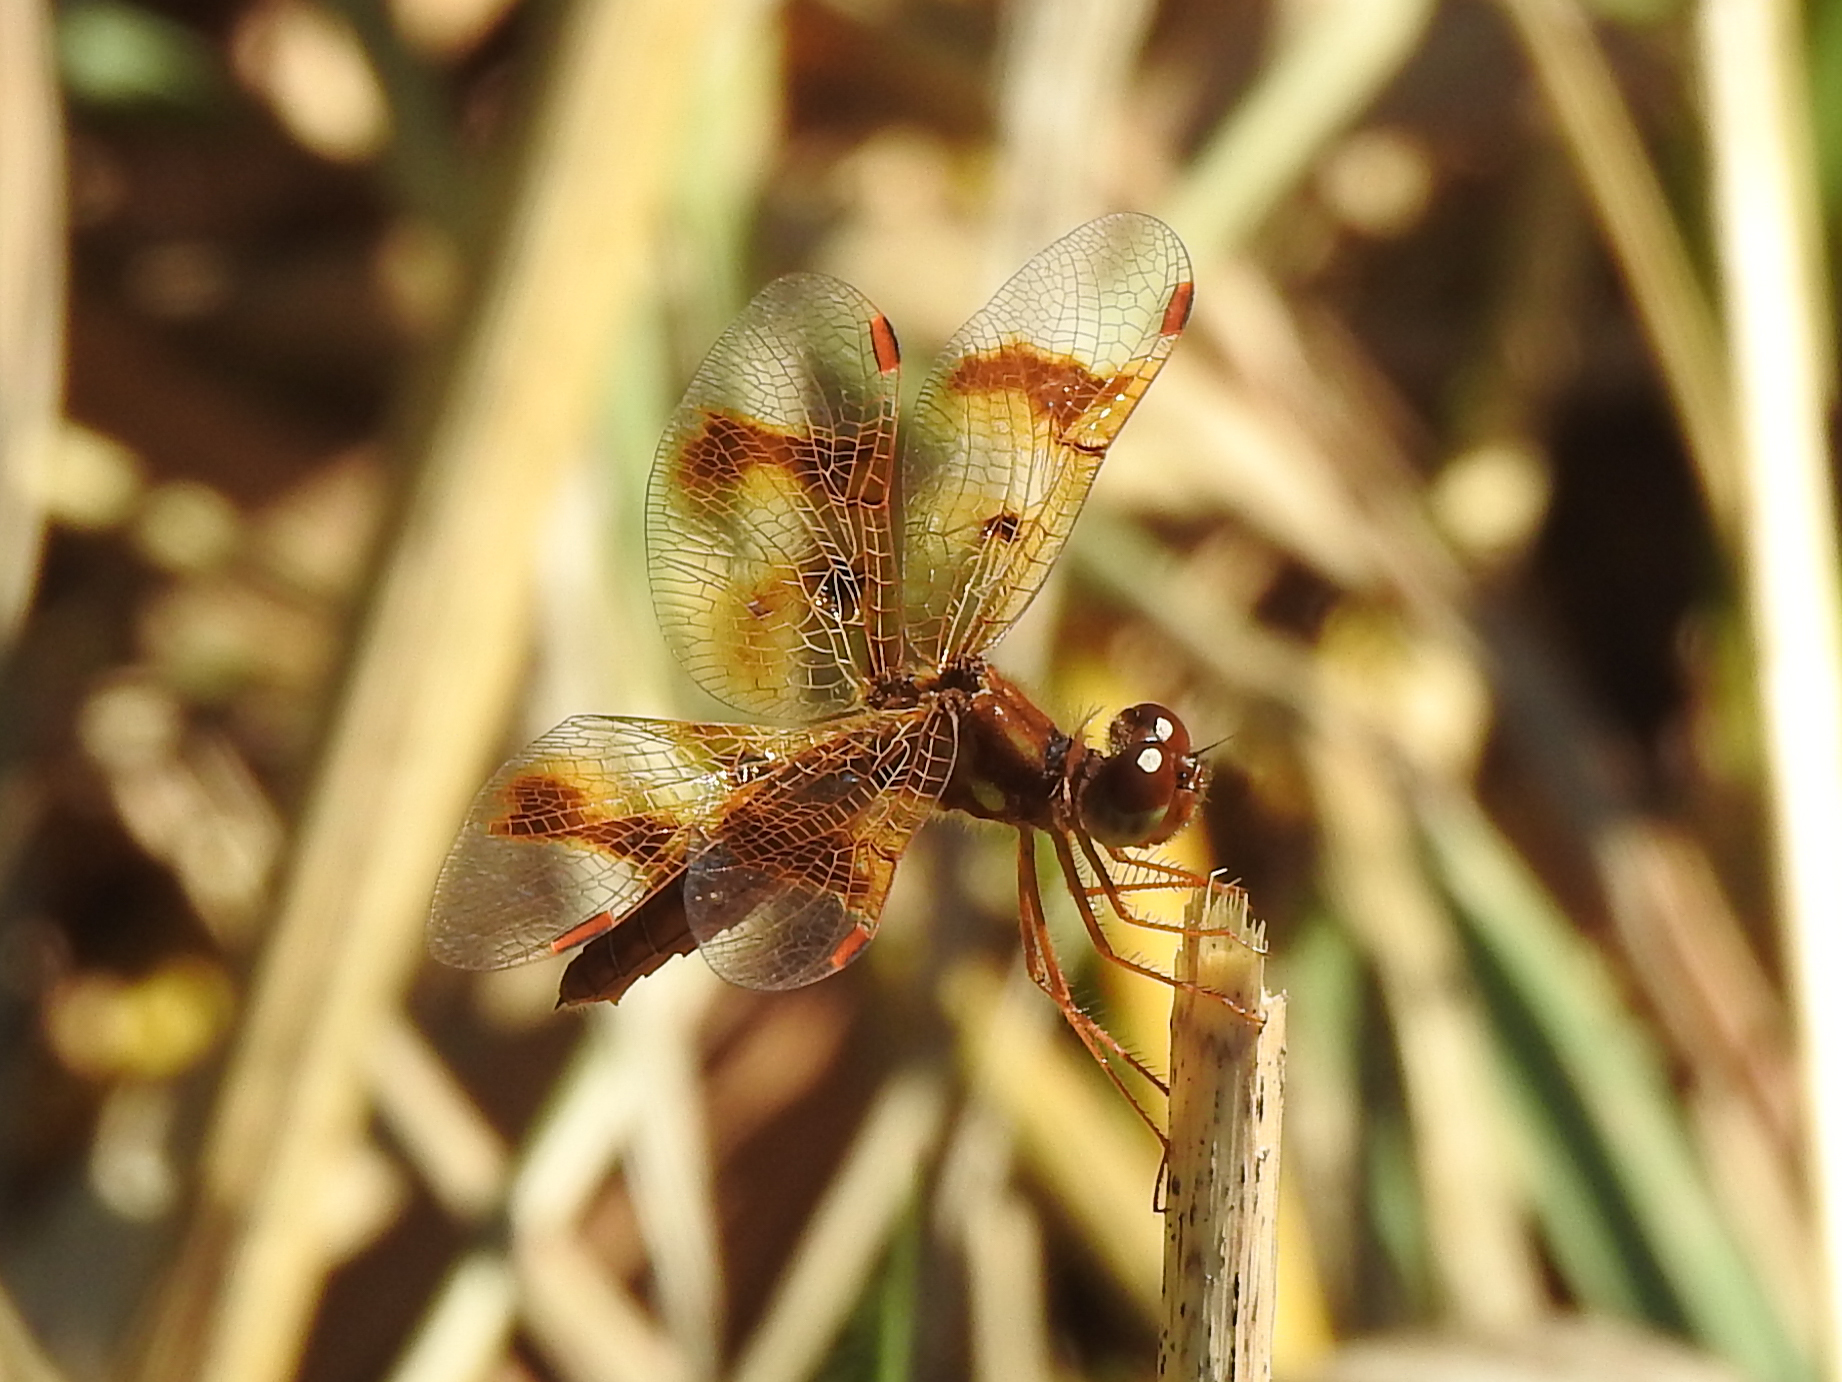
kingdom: Animalia
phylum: Arthropoda
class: Insecta
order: Odonata
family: Libellulidae
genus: Perithemis
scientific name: Perithemis tenera
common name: Eastern amberwing
